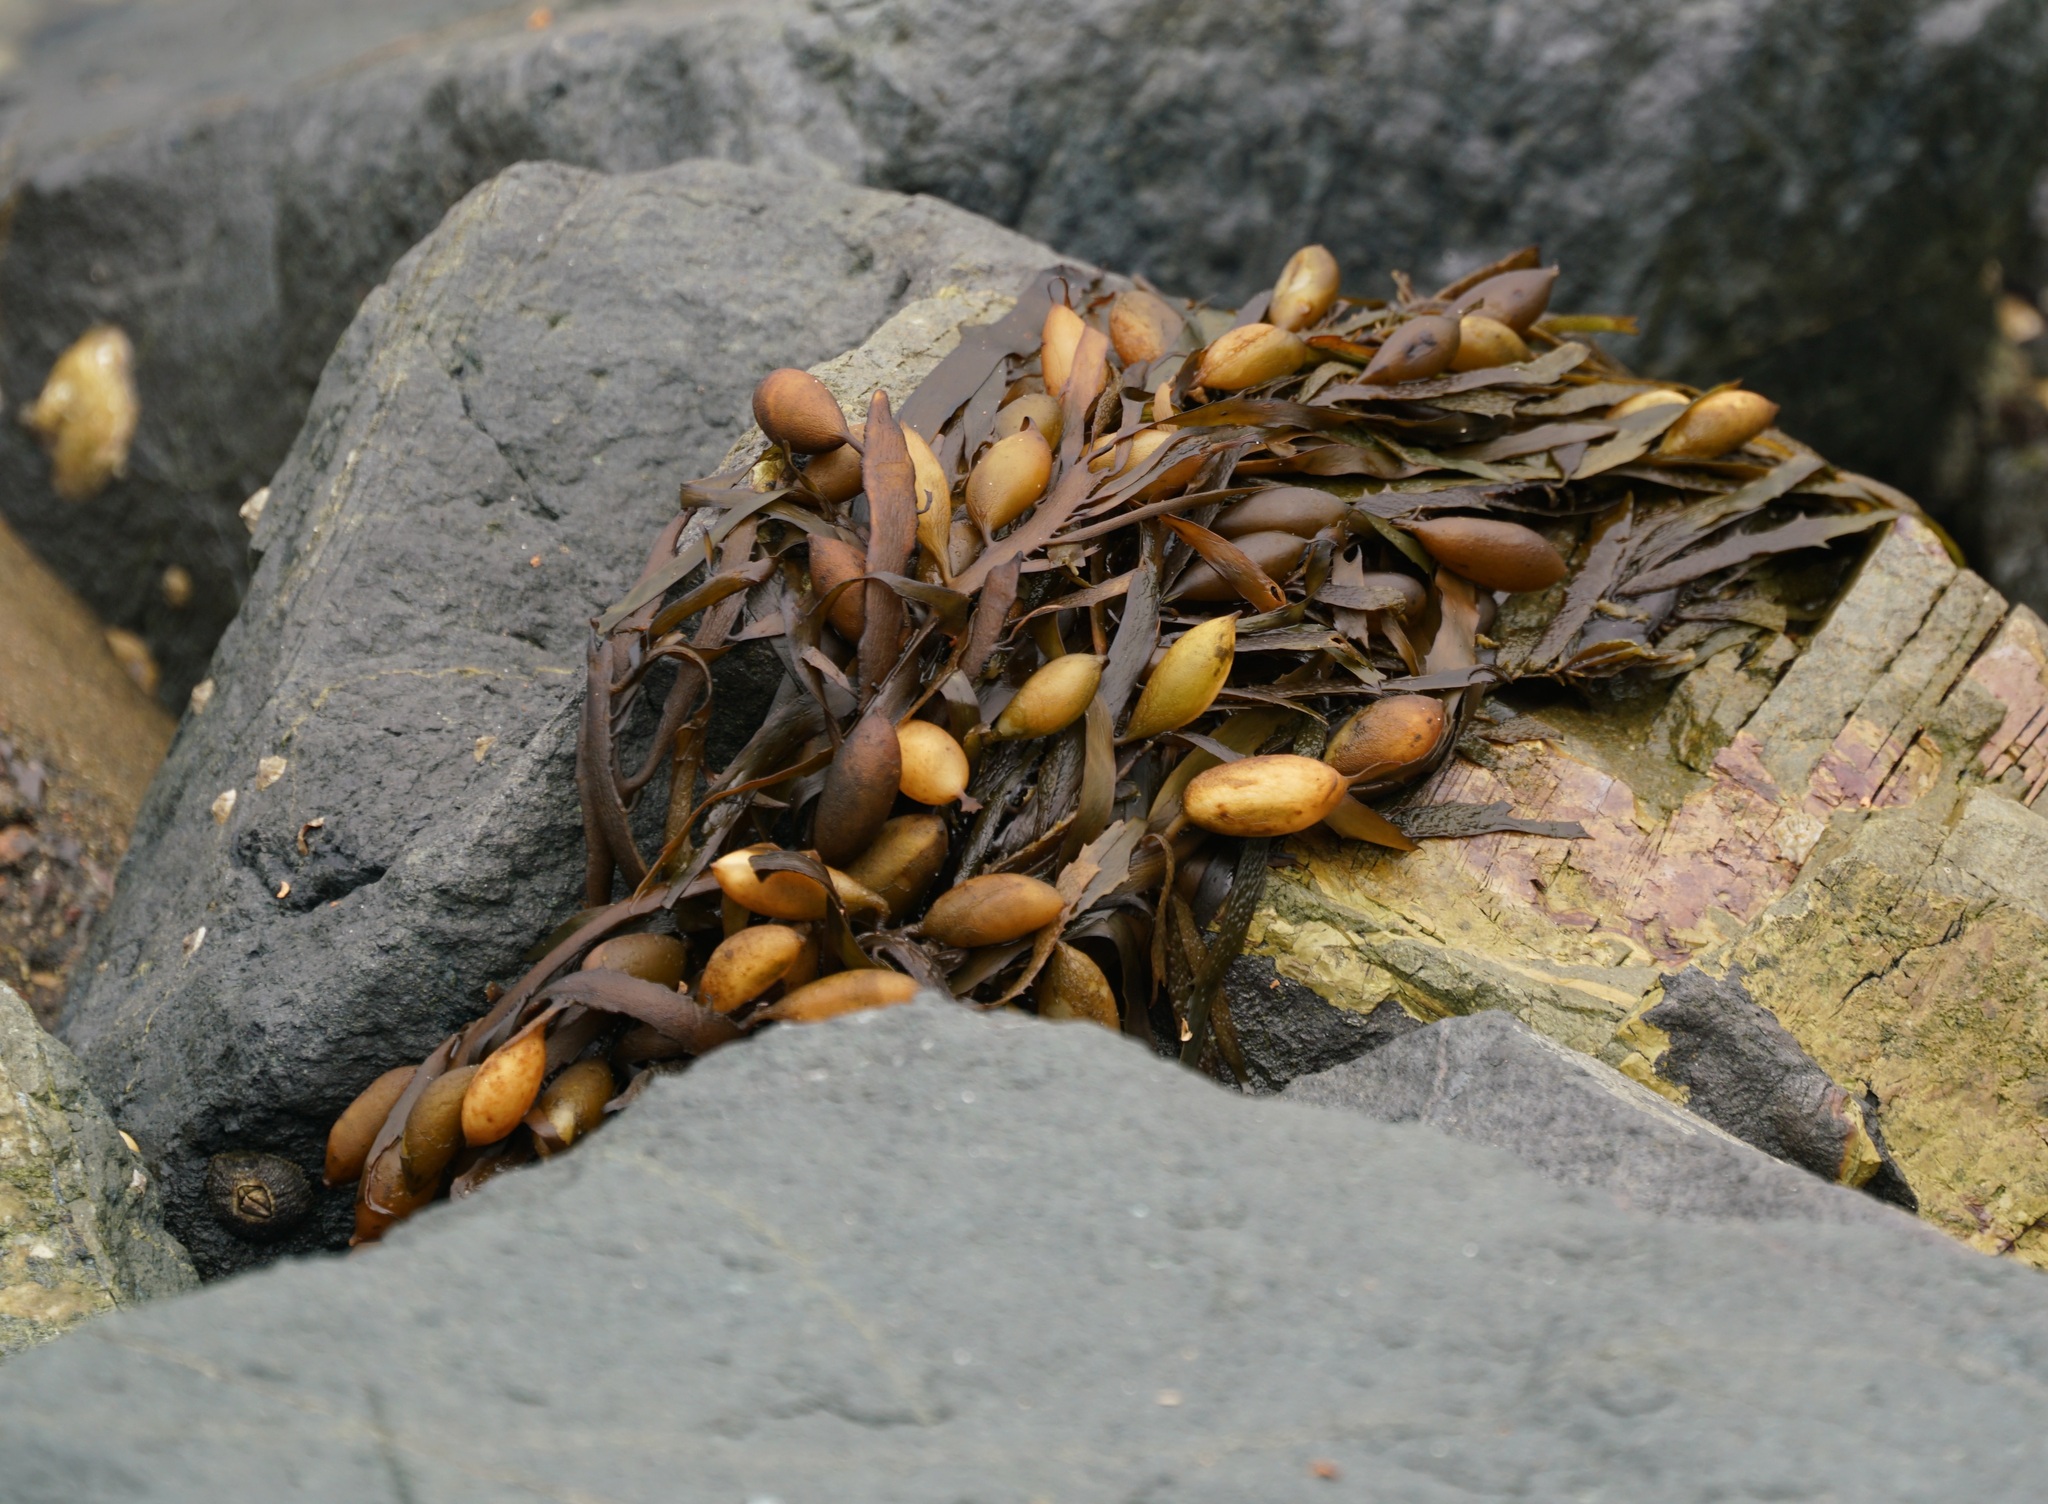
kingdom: Chromista
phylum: Ochrophyta
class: Phaeophyceae
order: Fucales
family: Seirococcaceae
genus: Phyllospora
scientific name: Phyllospora
